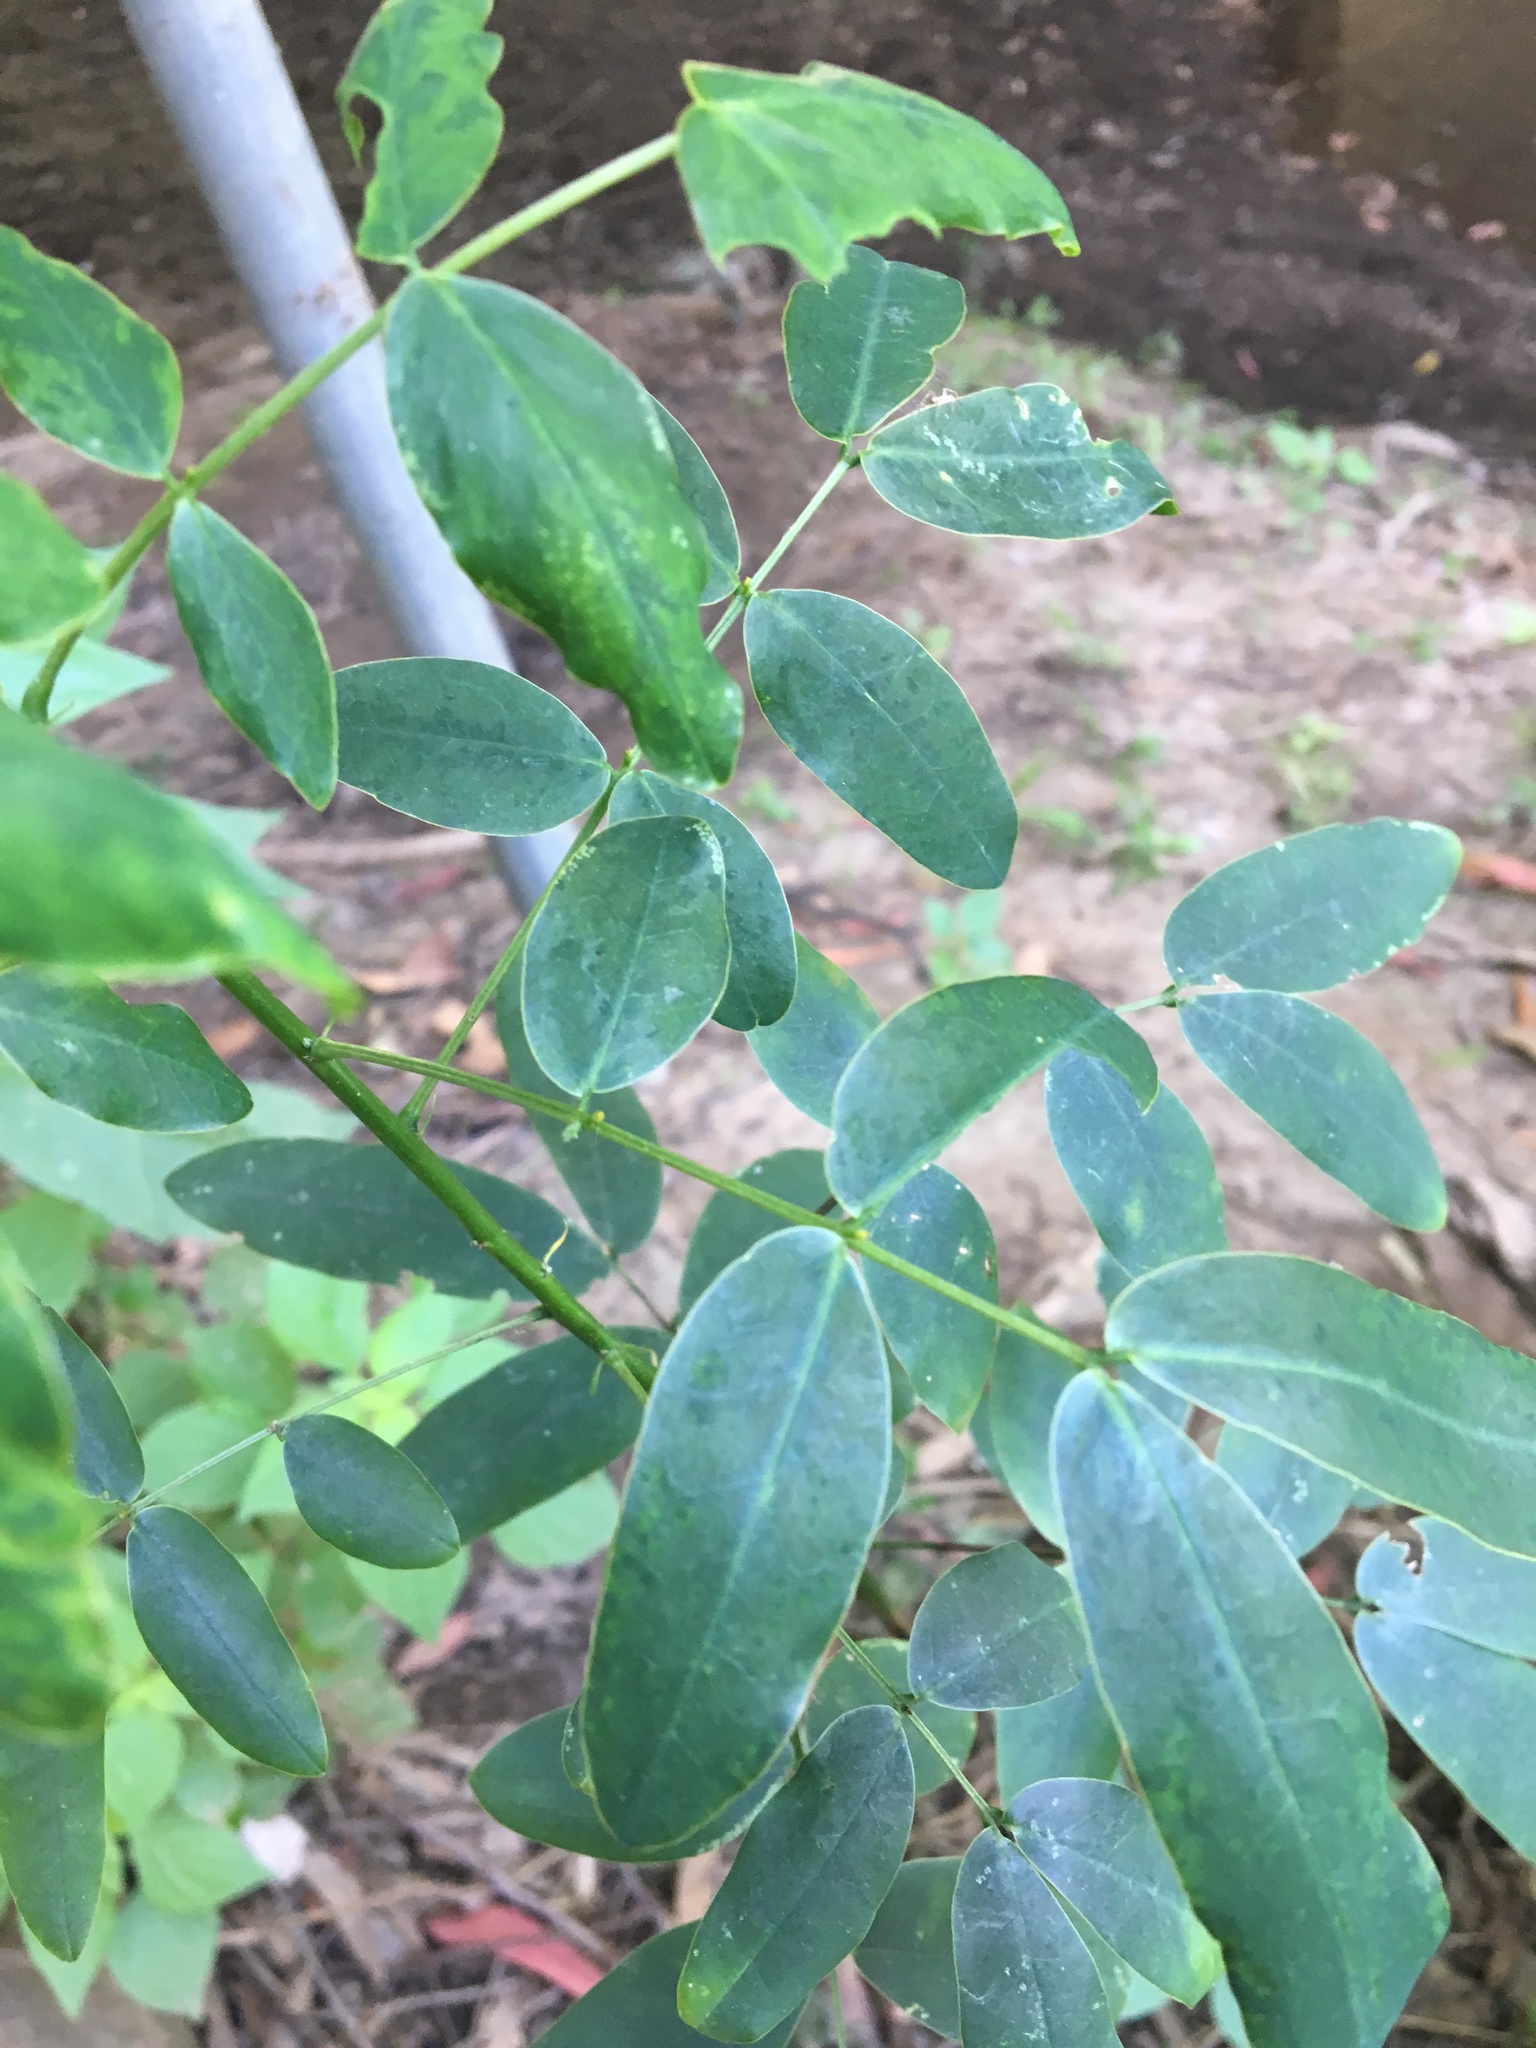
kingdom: Plantae
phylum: Tracheophyta
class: Magnoliopsida
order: Fabales
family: Fabaceae
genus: Senna
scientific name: Senna pendula
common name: Easter cassia
